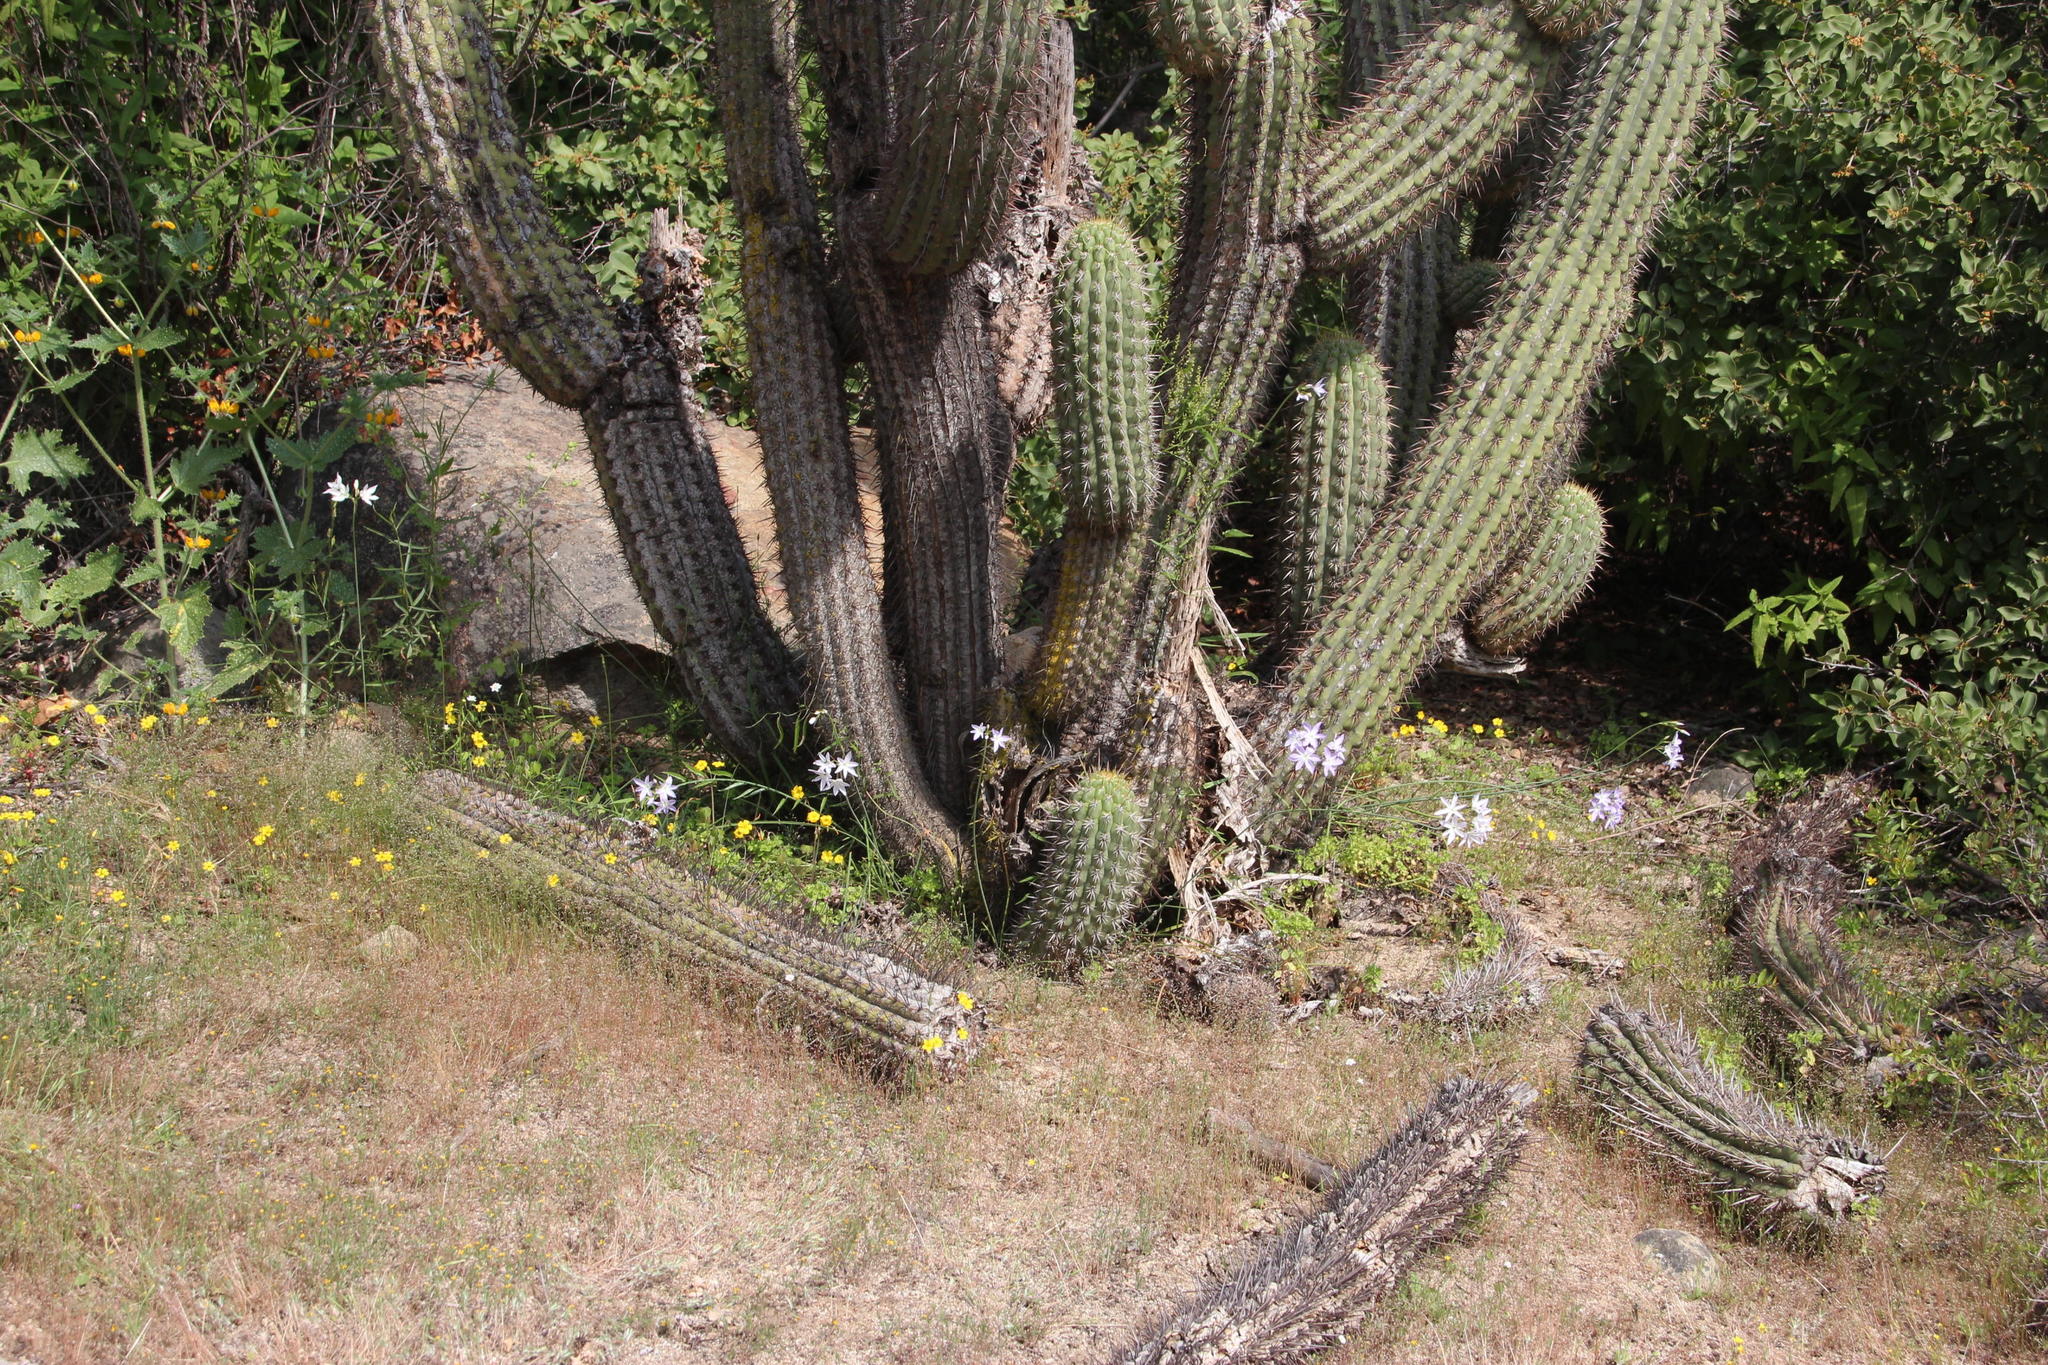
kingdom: Plantae
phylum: Tracheophyta
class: Liliopsida
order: Asparagales
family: Amaryllidaceae
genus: Leucocoryne
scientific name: Leucocoryne ixioides
